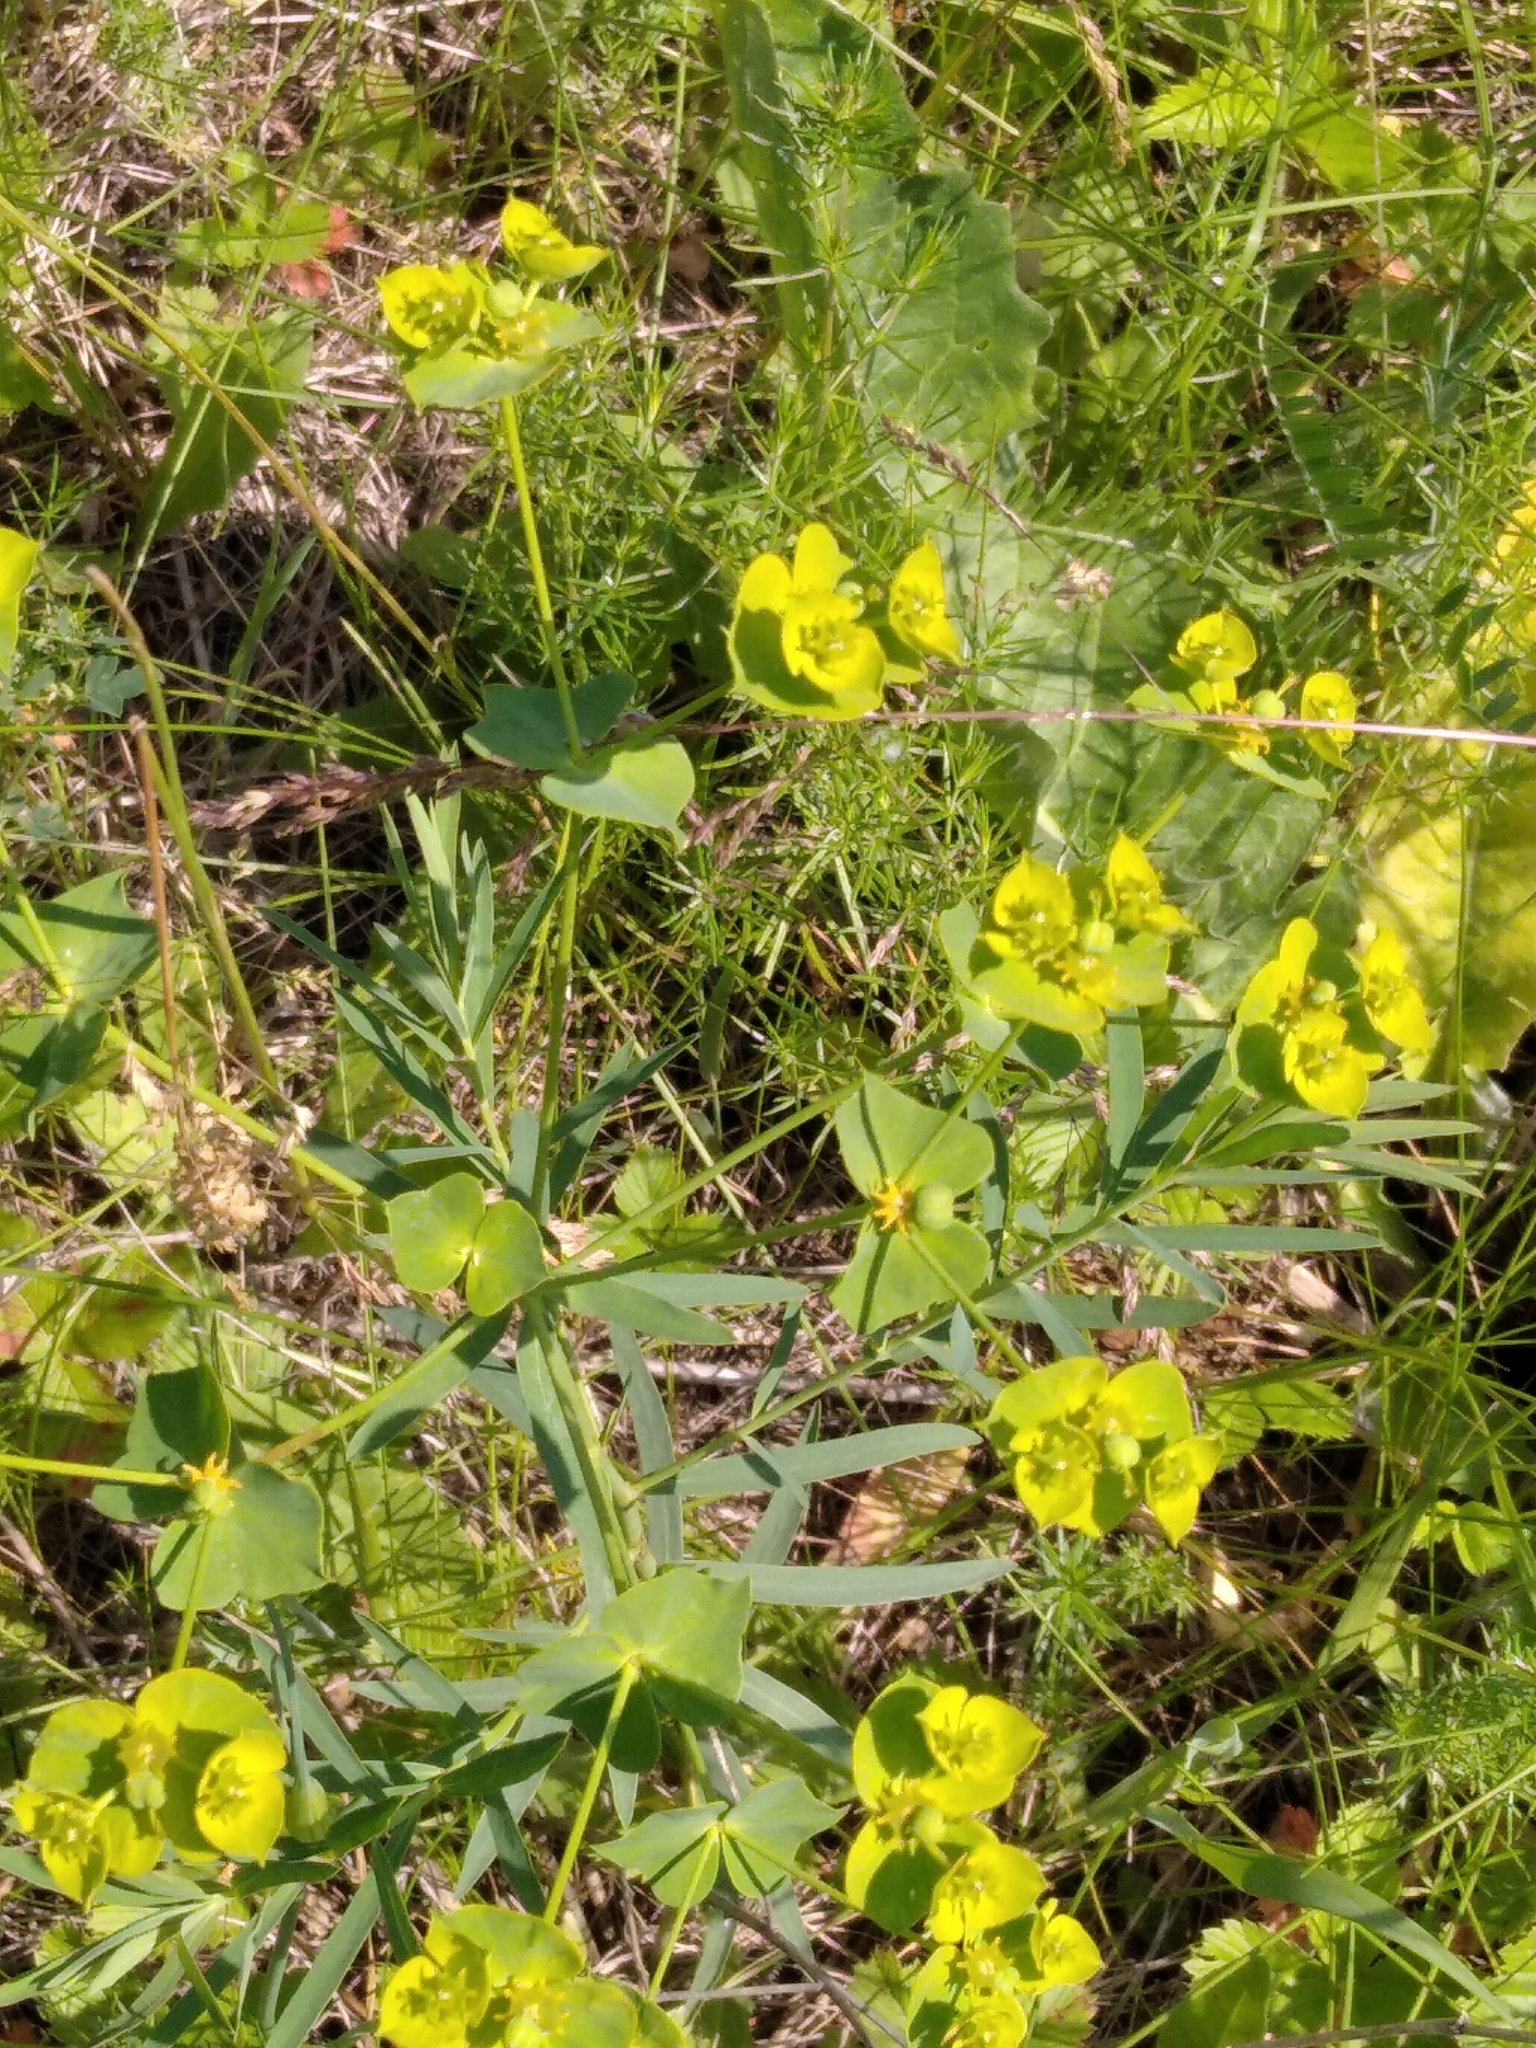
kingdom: Plantae
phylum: Tracheophyta
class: Magnoliopsida
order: Malpighiales
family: Euphorbiaceae
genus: Euphorbia
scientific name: Euphorbia virgata
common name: Leafy spurge
